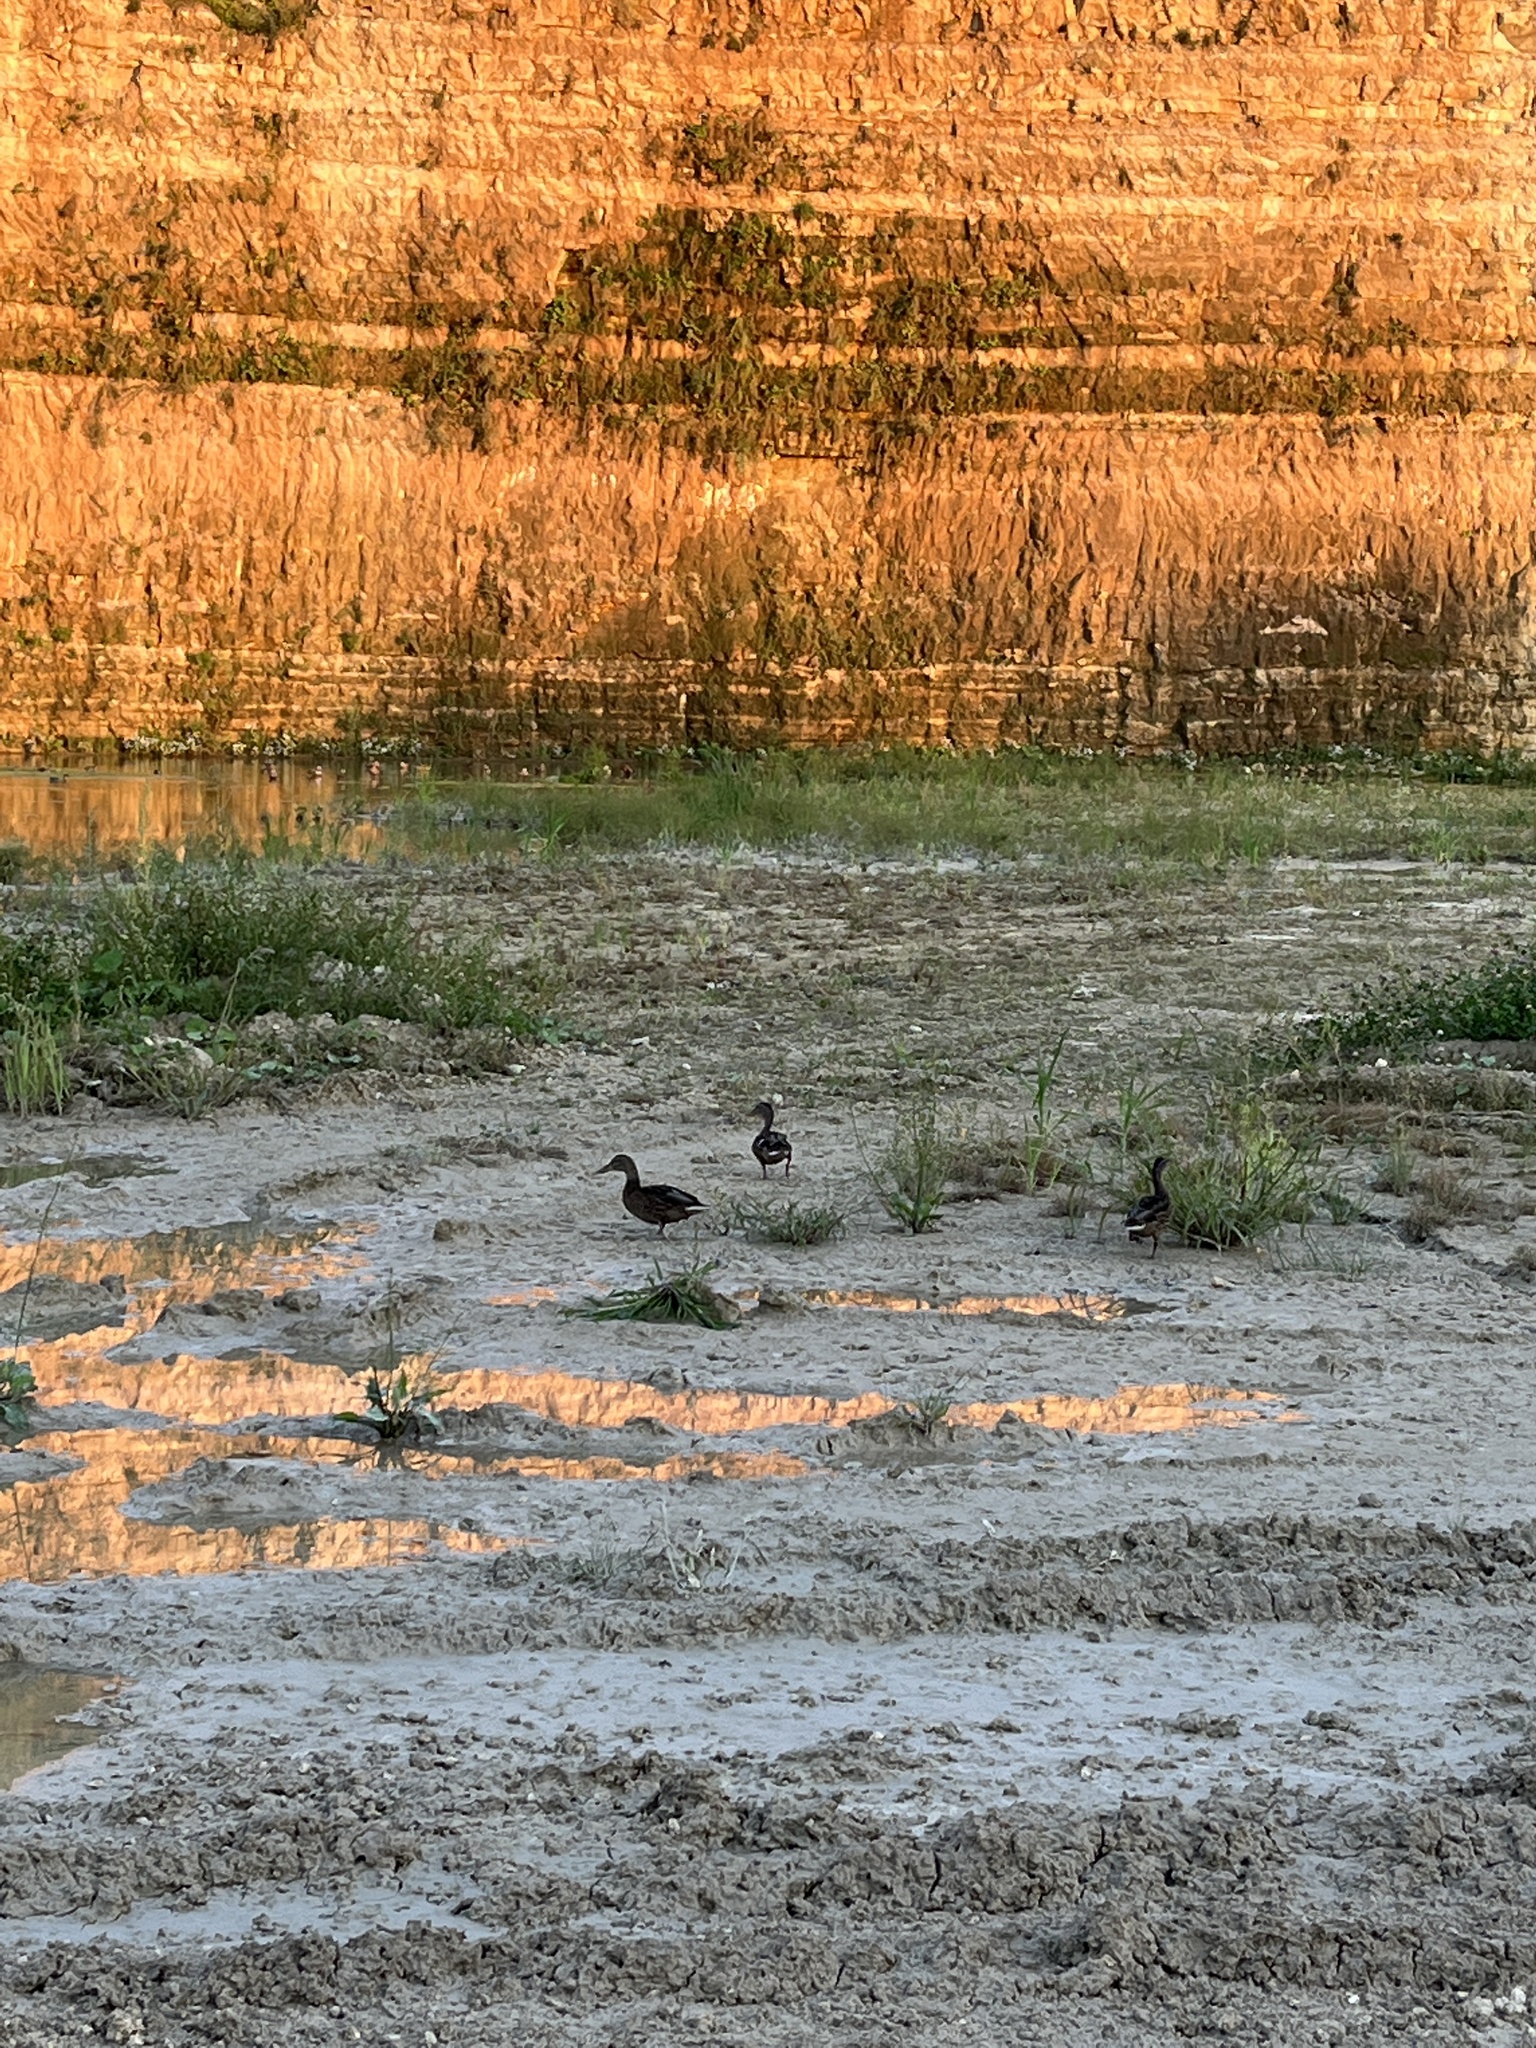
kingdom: Animalia
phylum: Chordata
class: Aves
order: Anseriformes
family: Anatidae
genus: Anas
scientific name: Anas platyrhynchos
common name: Mallard
